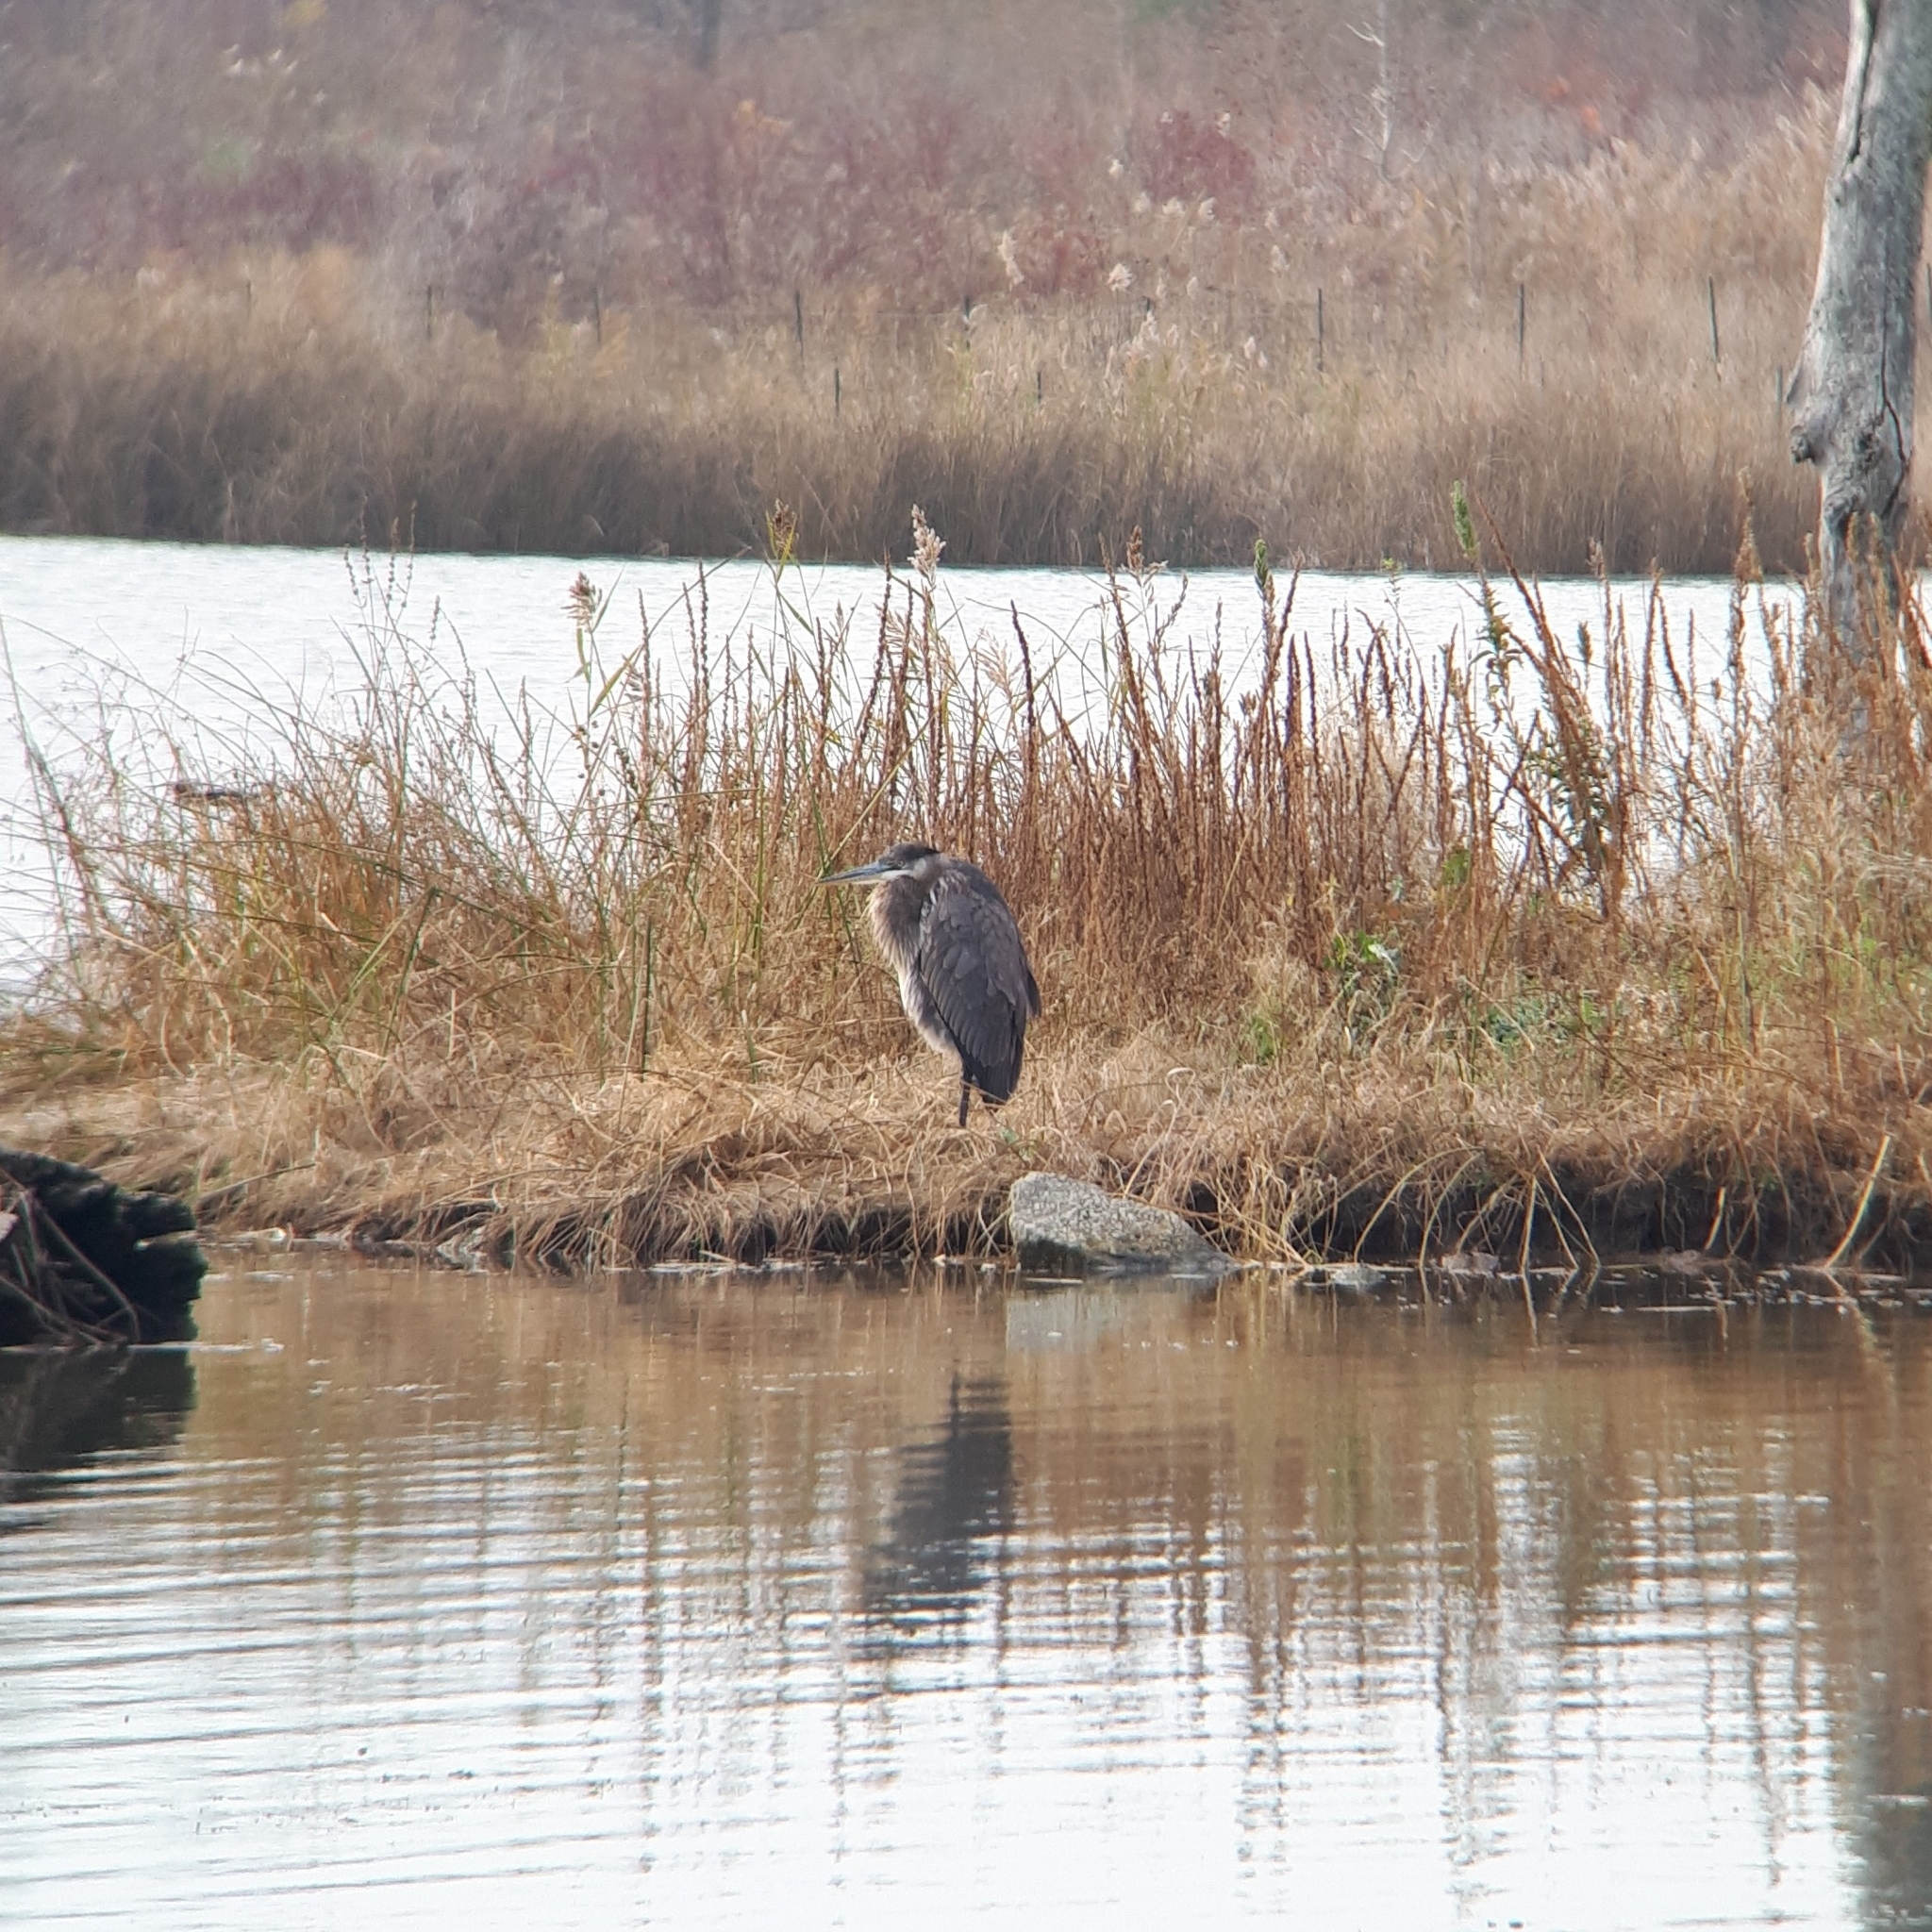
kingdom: Animalia
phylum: Chordata
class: Aves
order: Pelecaniformes
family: Ardeidae
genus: Ardea
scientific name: Ardea herodias
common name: Great blue heron
